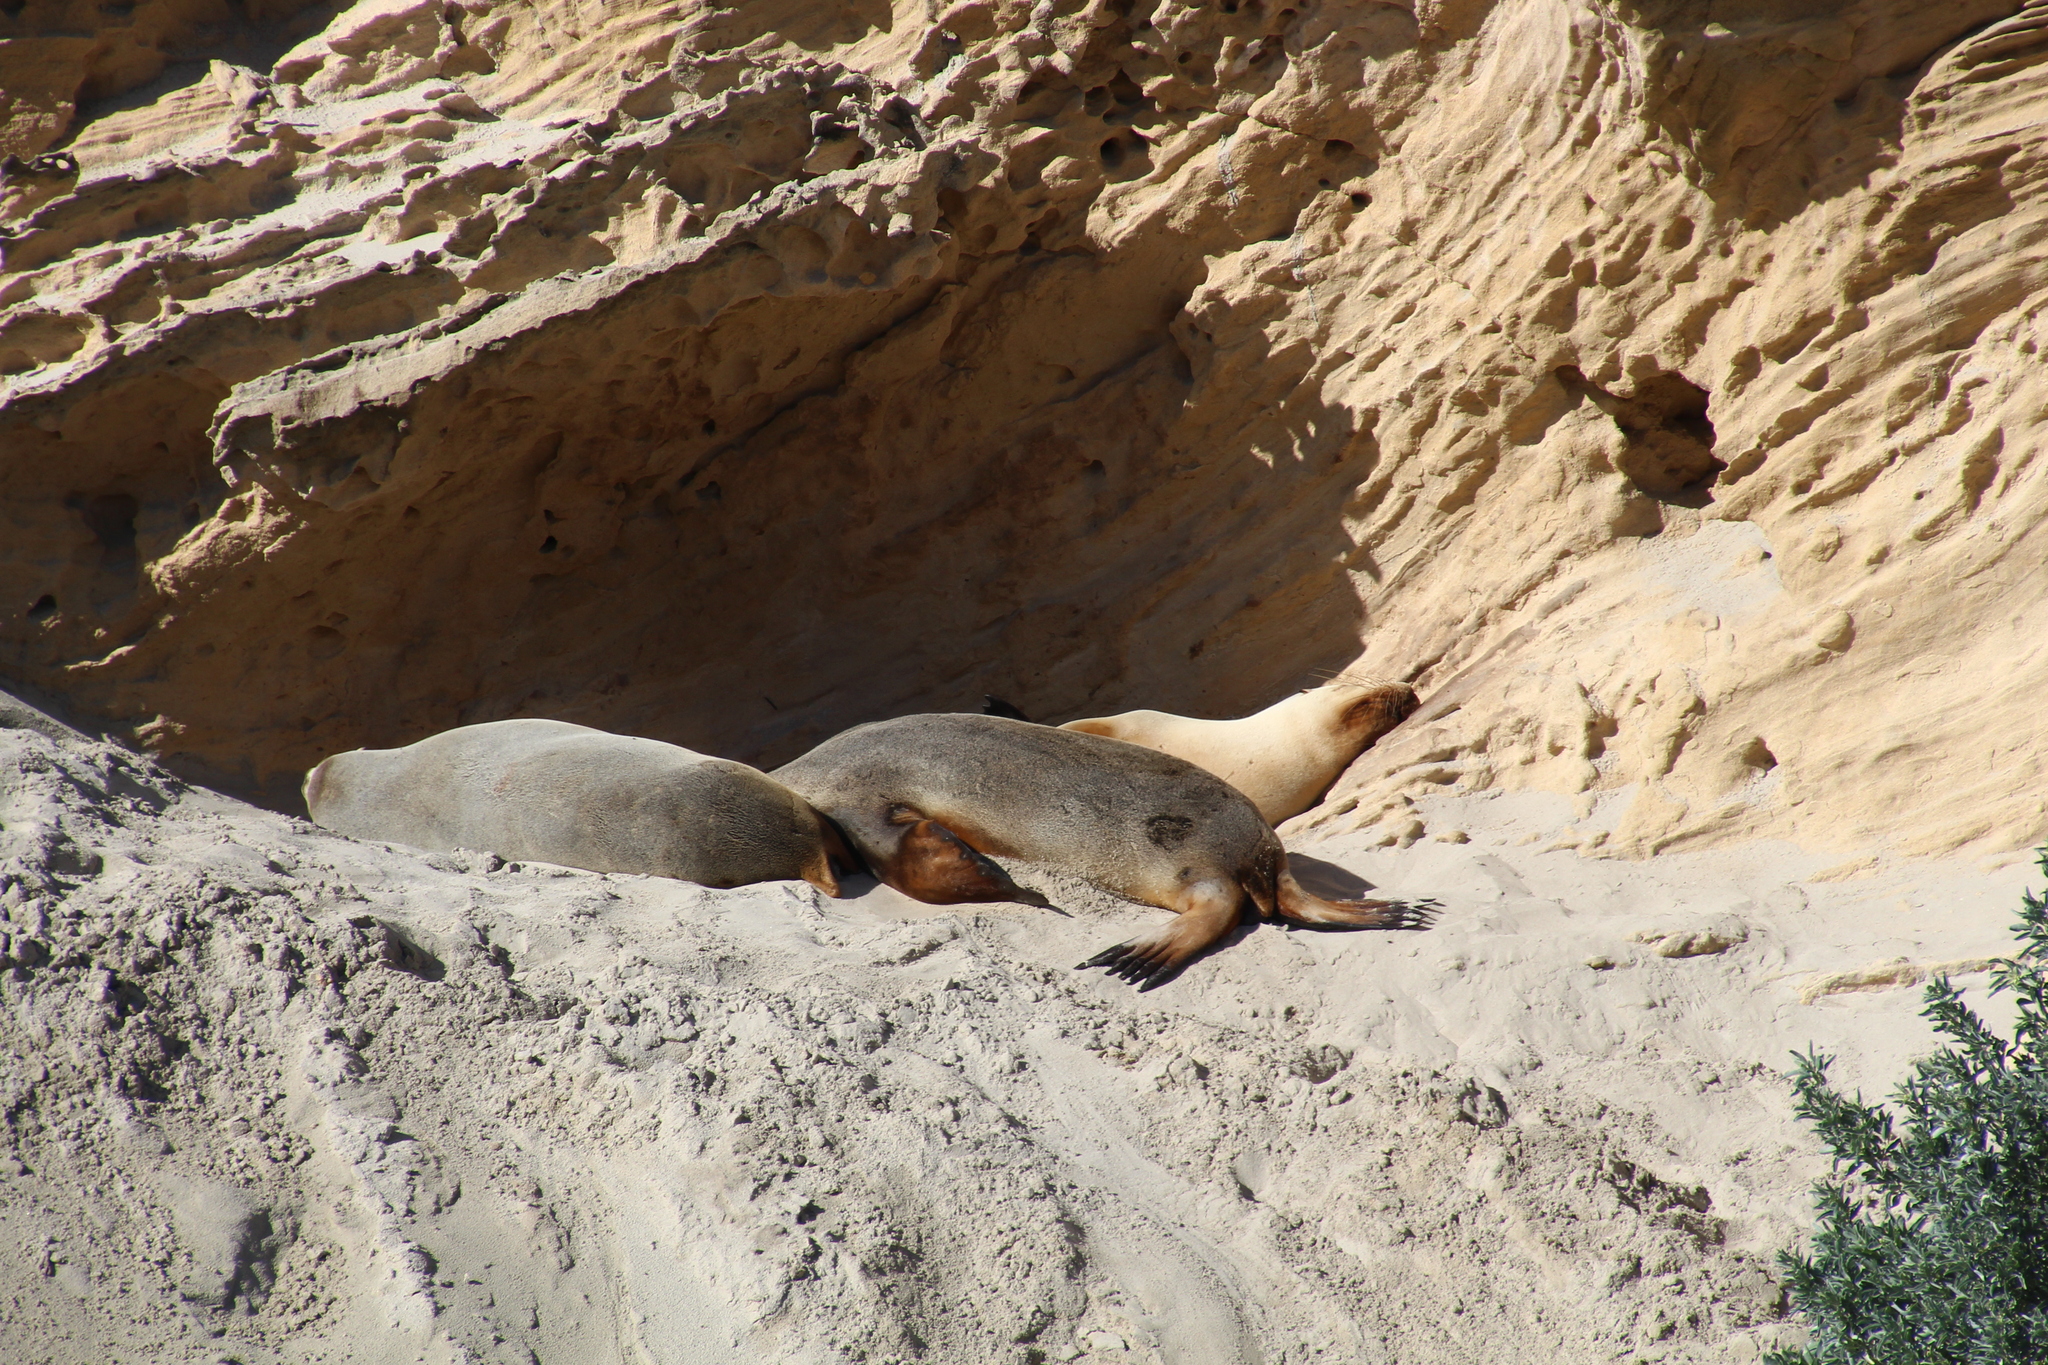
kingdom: Animalia
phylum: Chordata
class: Mammalia
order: Carnivora
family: Otariidae
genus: Neophoca
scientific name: Neophoca cinerea
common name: Australian sea lion
